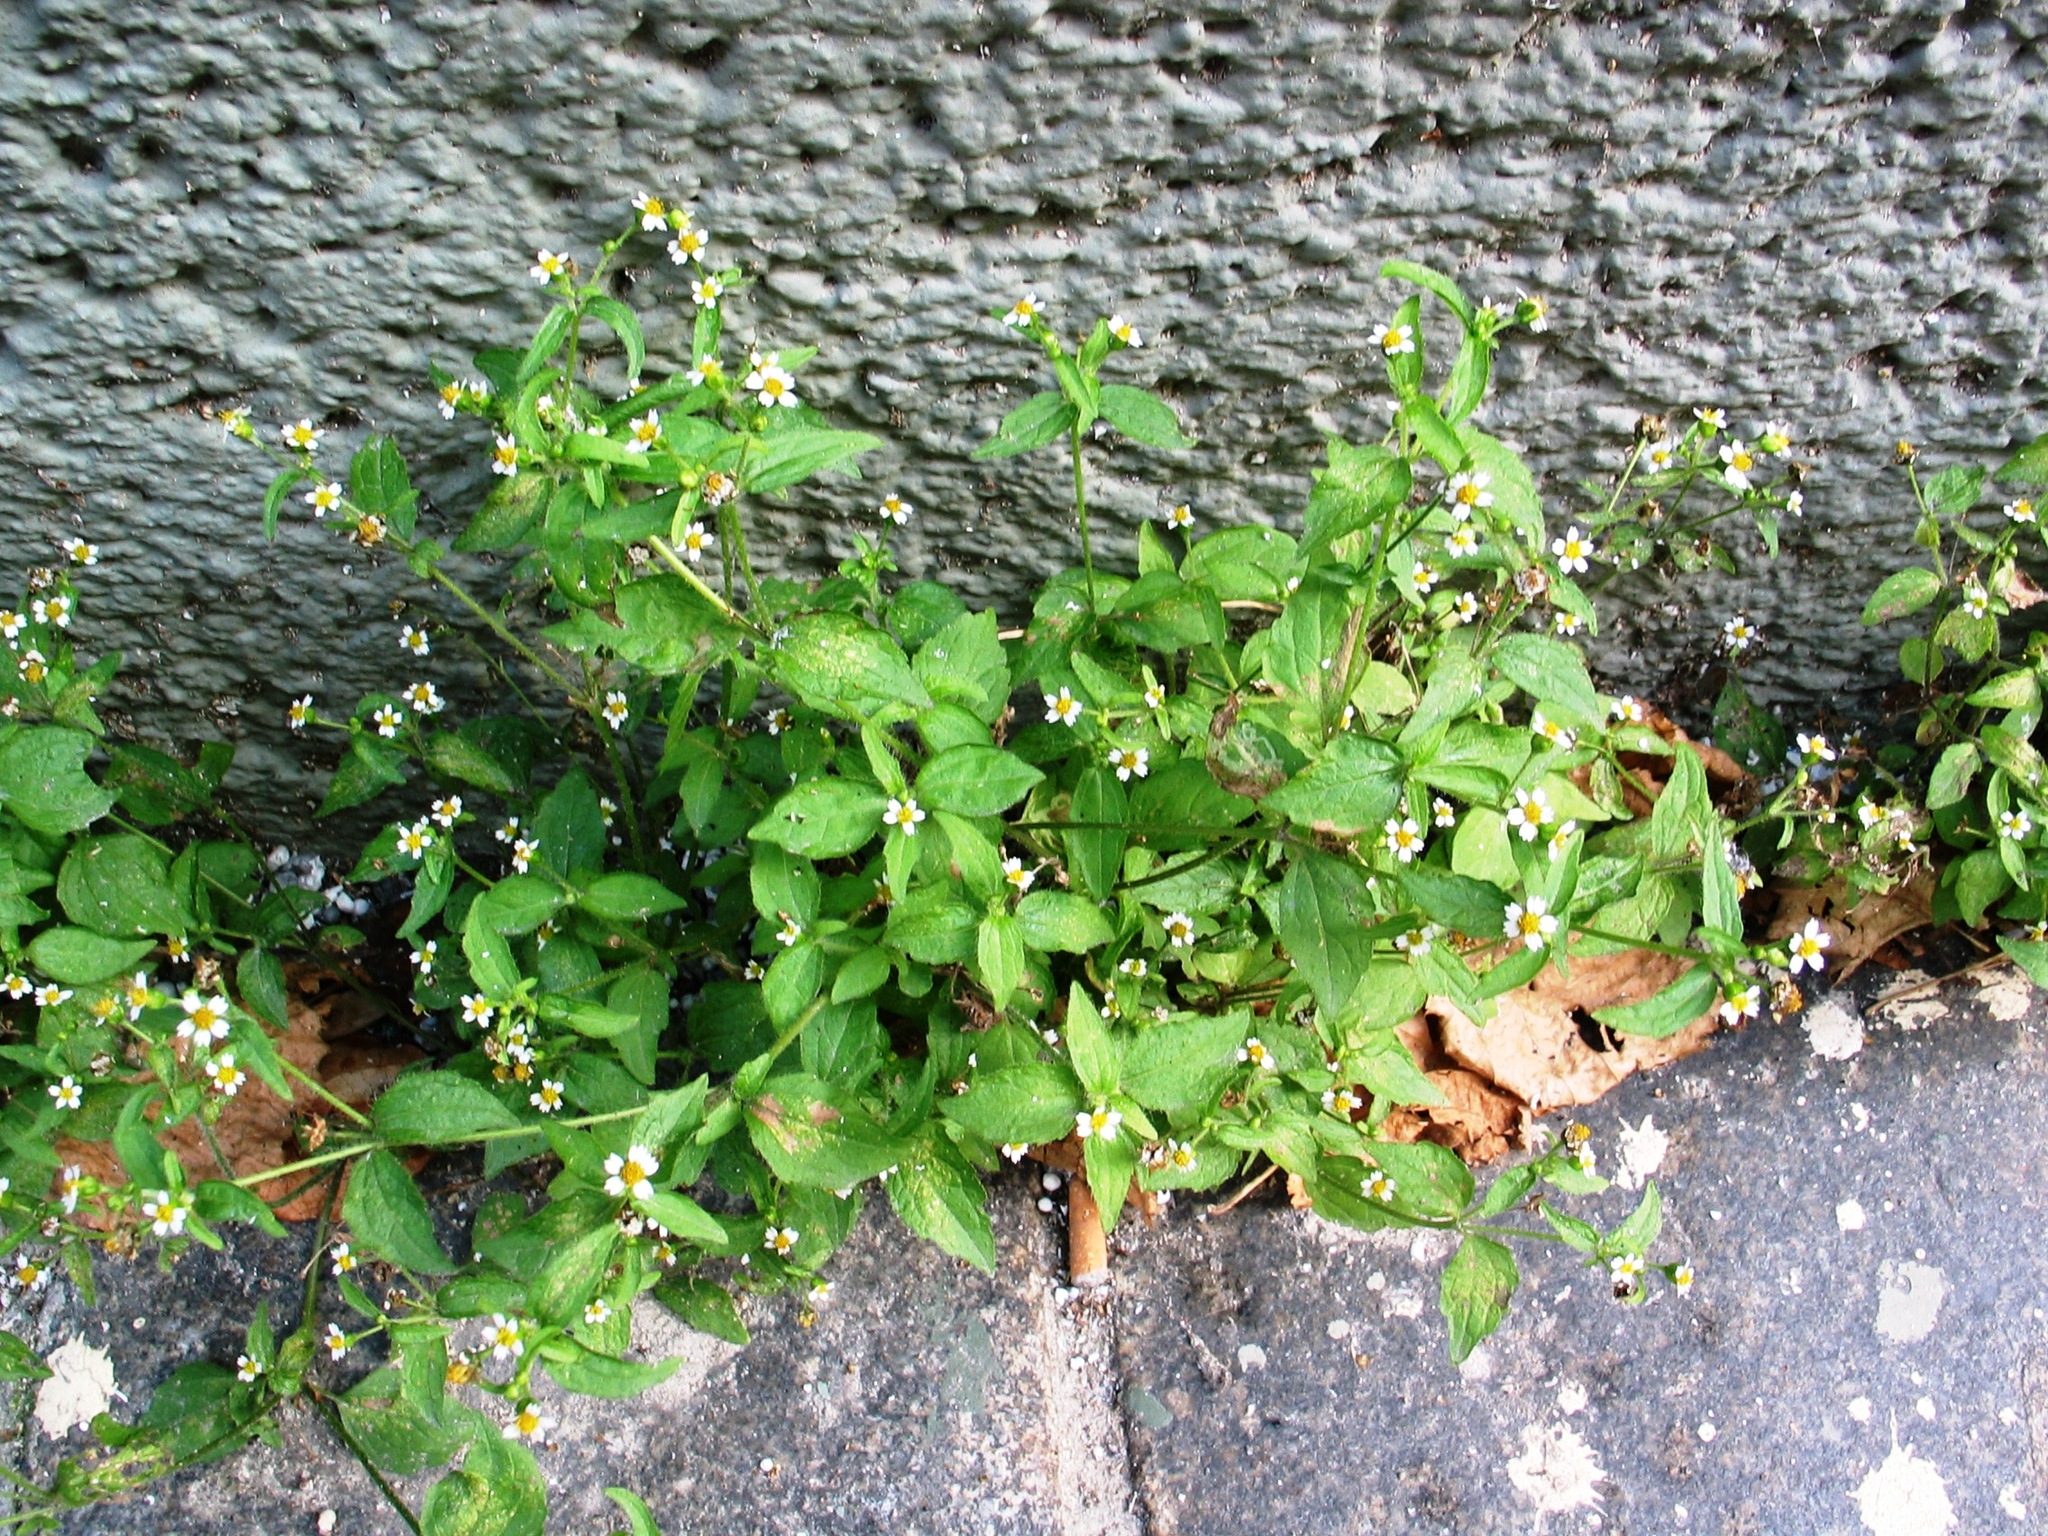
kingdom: Plantae
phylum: Tracheophyta
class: Magnoliopsida
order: Asterales
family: Asteraceae
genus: Galinsoga
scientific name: Galinsoga quadriradiata
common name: Shaggy soldier
